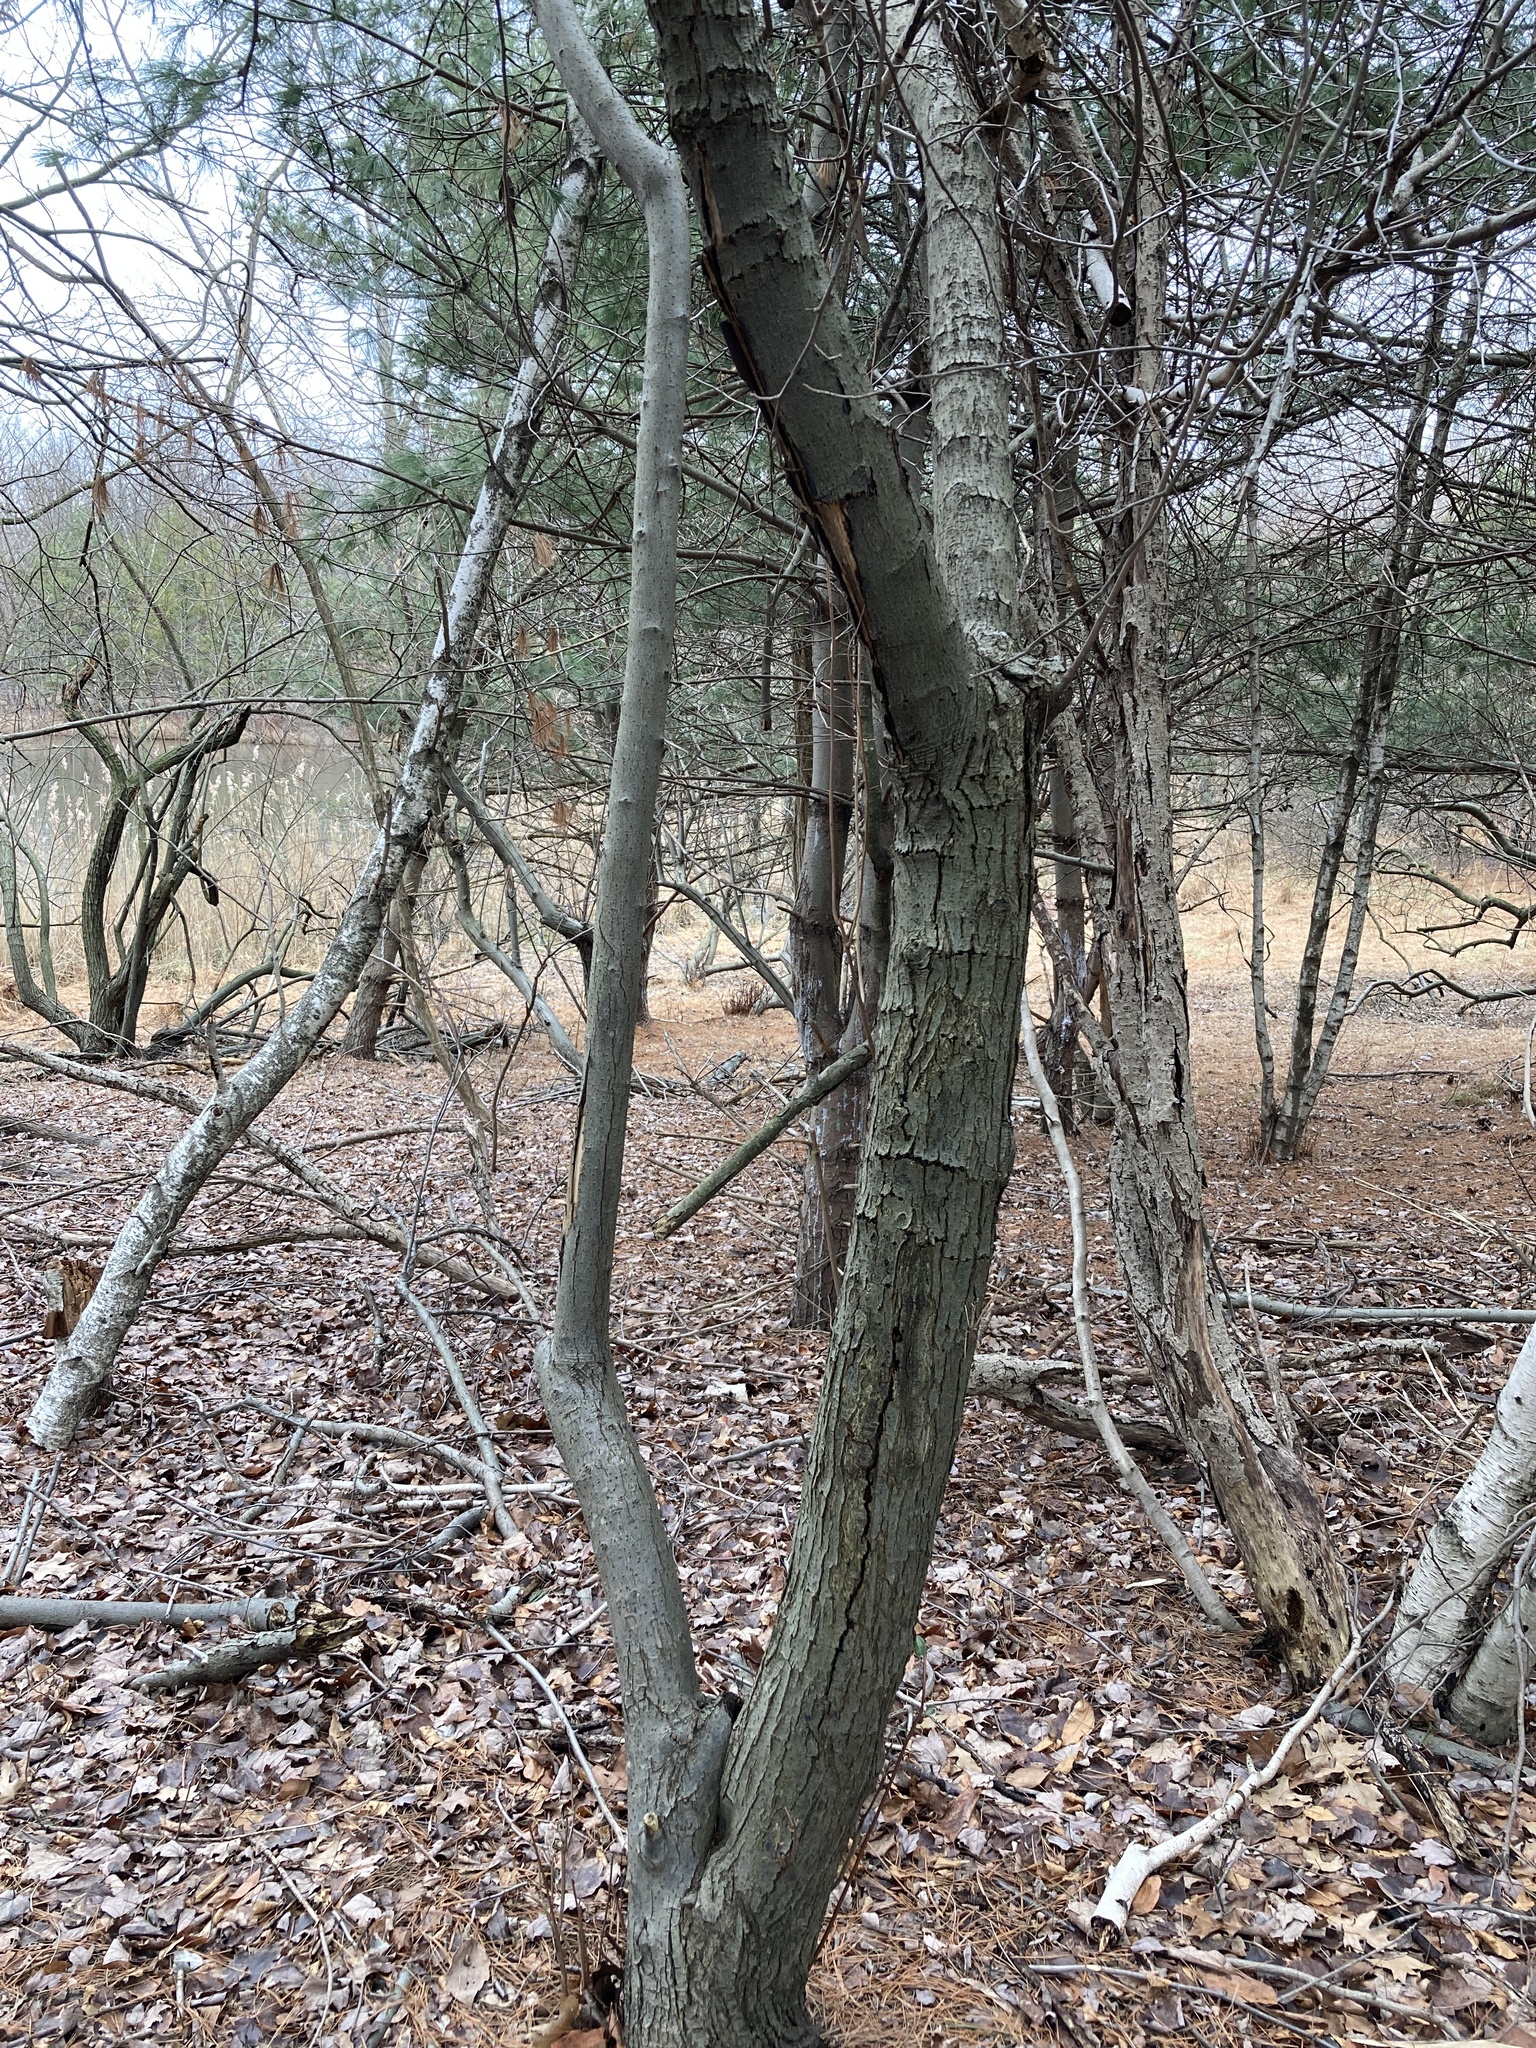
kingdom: Plantae
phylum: Tracheophyta
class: Magnoliopsida
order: Rosales
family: Elaeagnaceae
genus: Elaeagnus
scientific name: Elaeagnus umbellata
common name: Autumn olive
